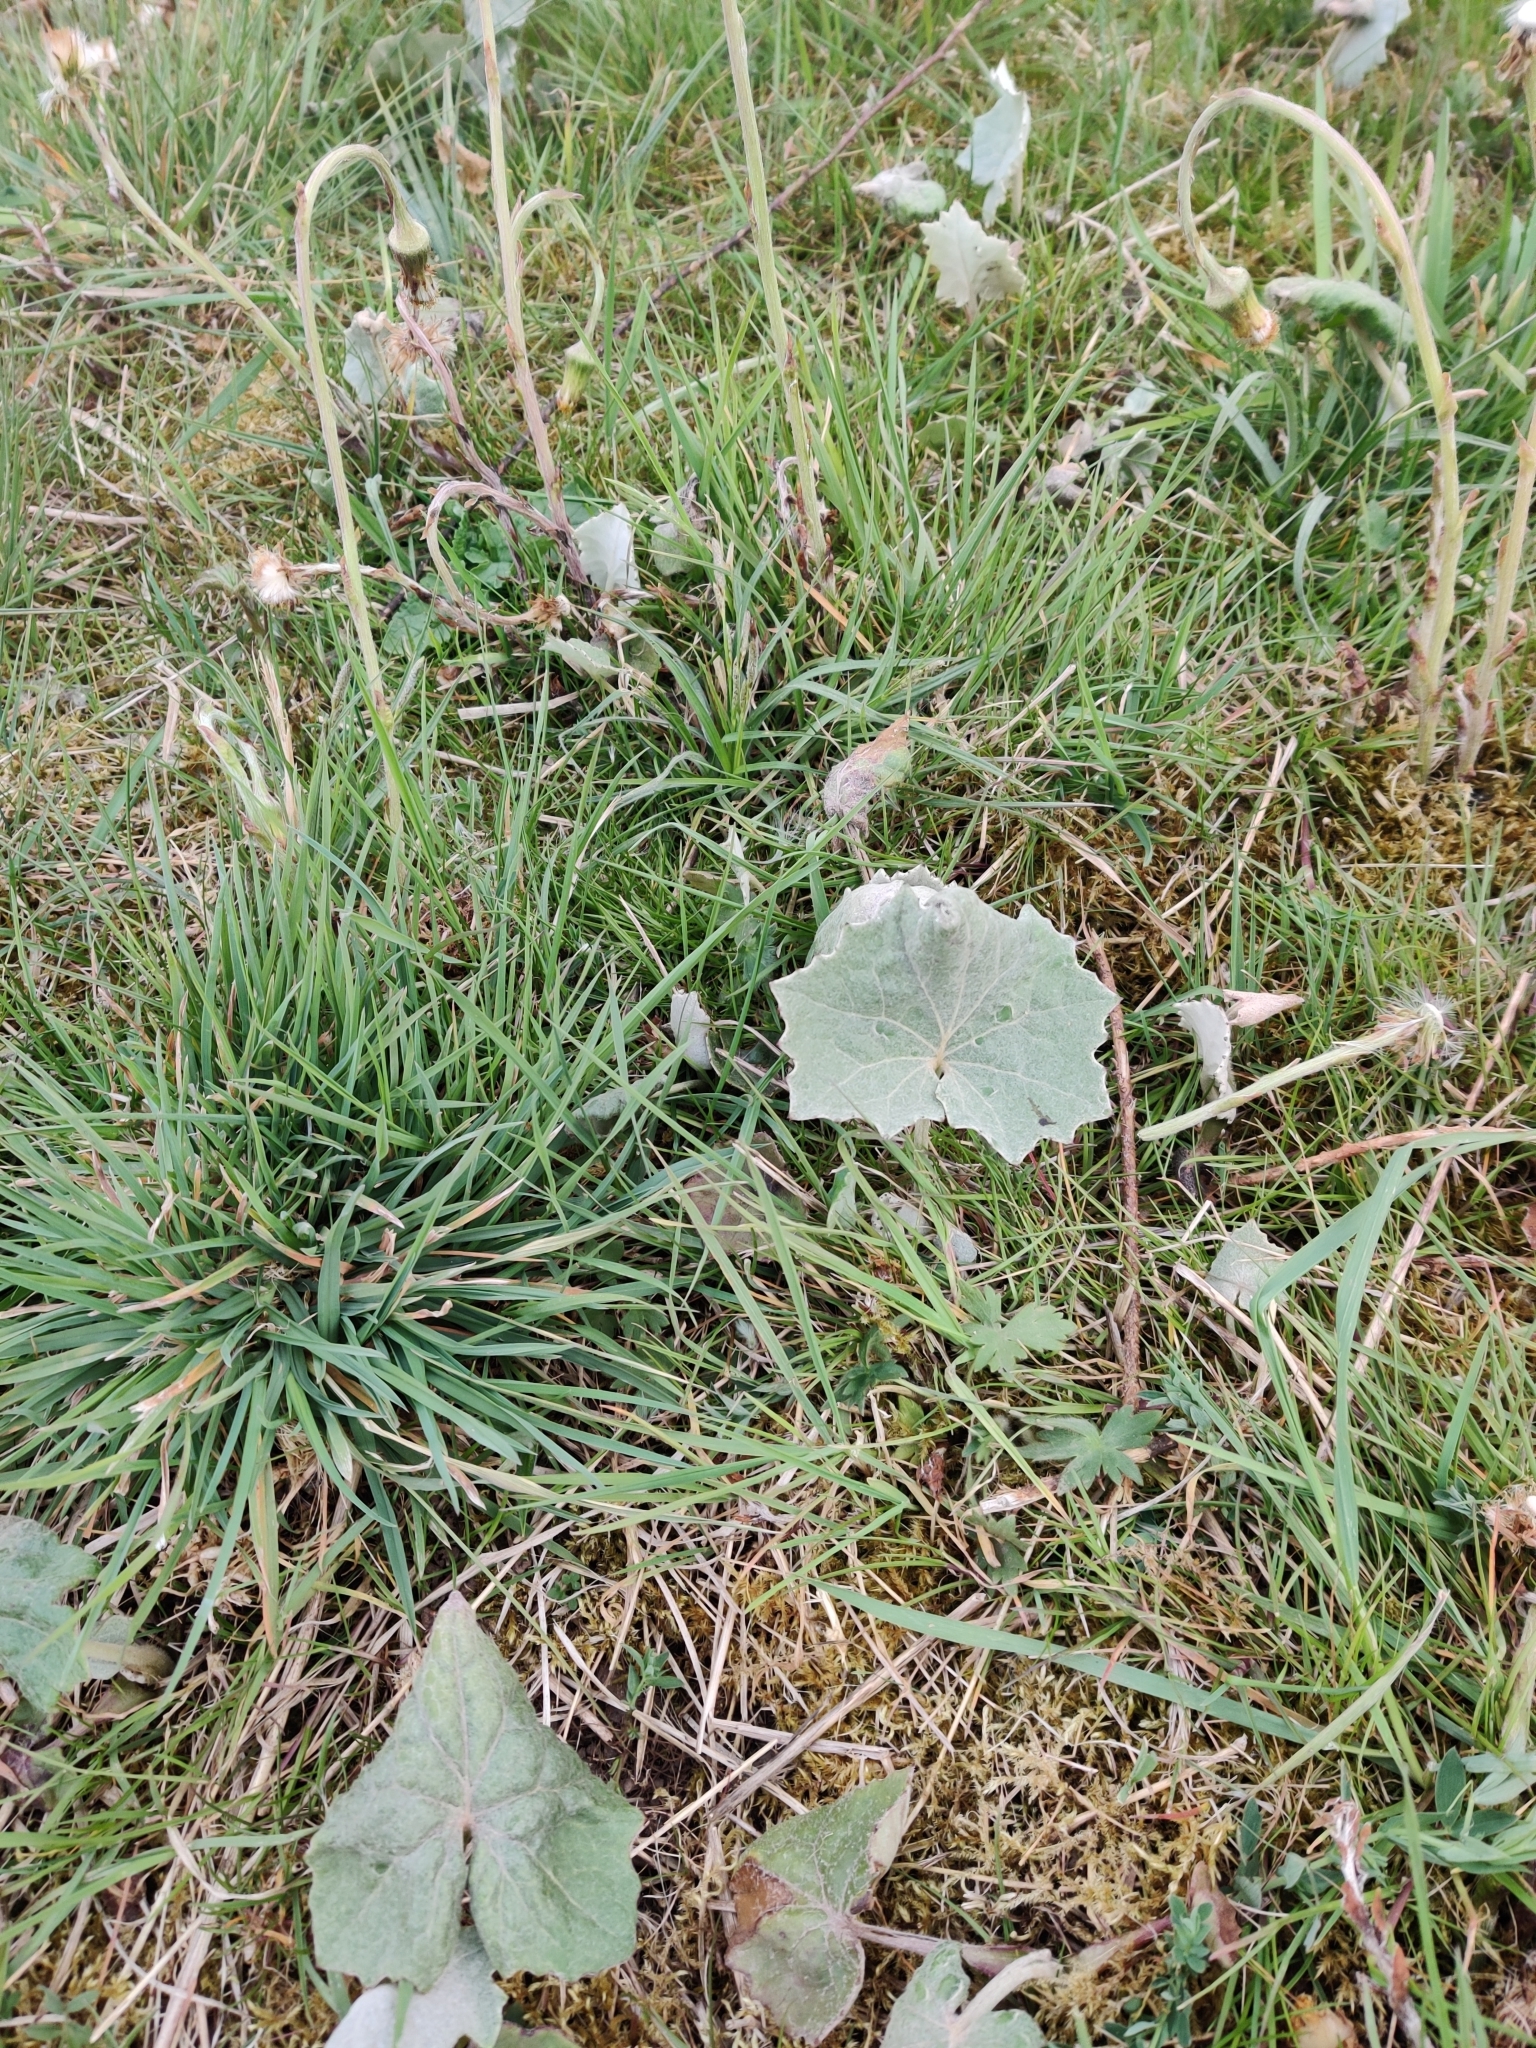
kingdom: Plantae
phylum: Tracheophyta
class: Magnoliopsida
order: Asterales
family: Asteraceae
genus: Tussilago
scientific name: Tussilago farfara
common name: Coltsfoot
